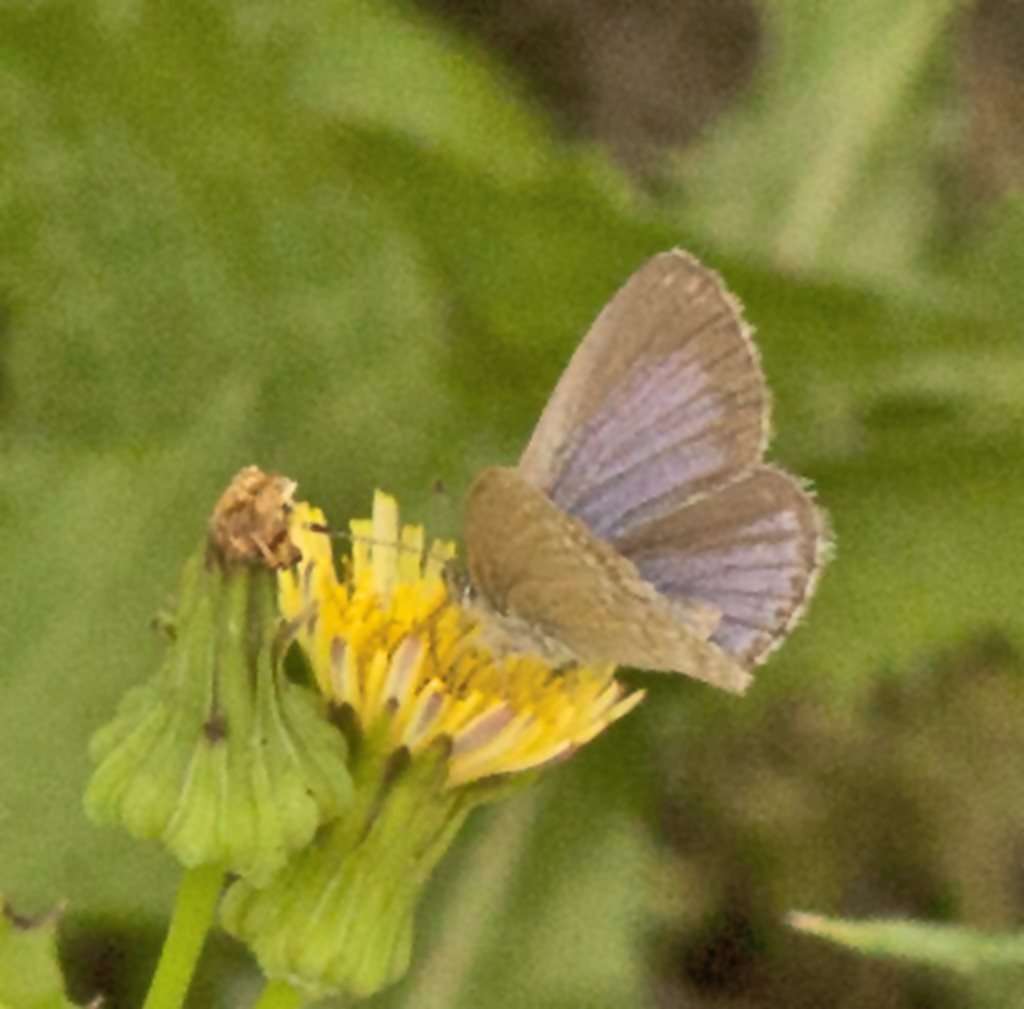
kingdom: Animalia
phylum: Arthropoda
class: Insecta
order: Lepidoptera
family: Lycaenidae
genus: Zizina
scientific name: Zizina labradus
